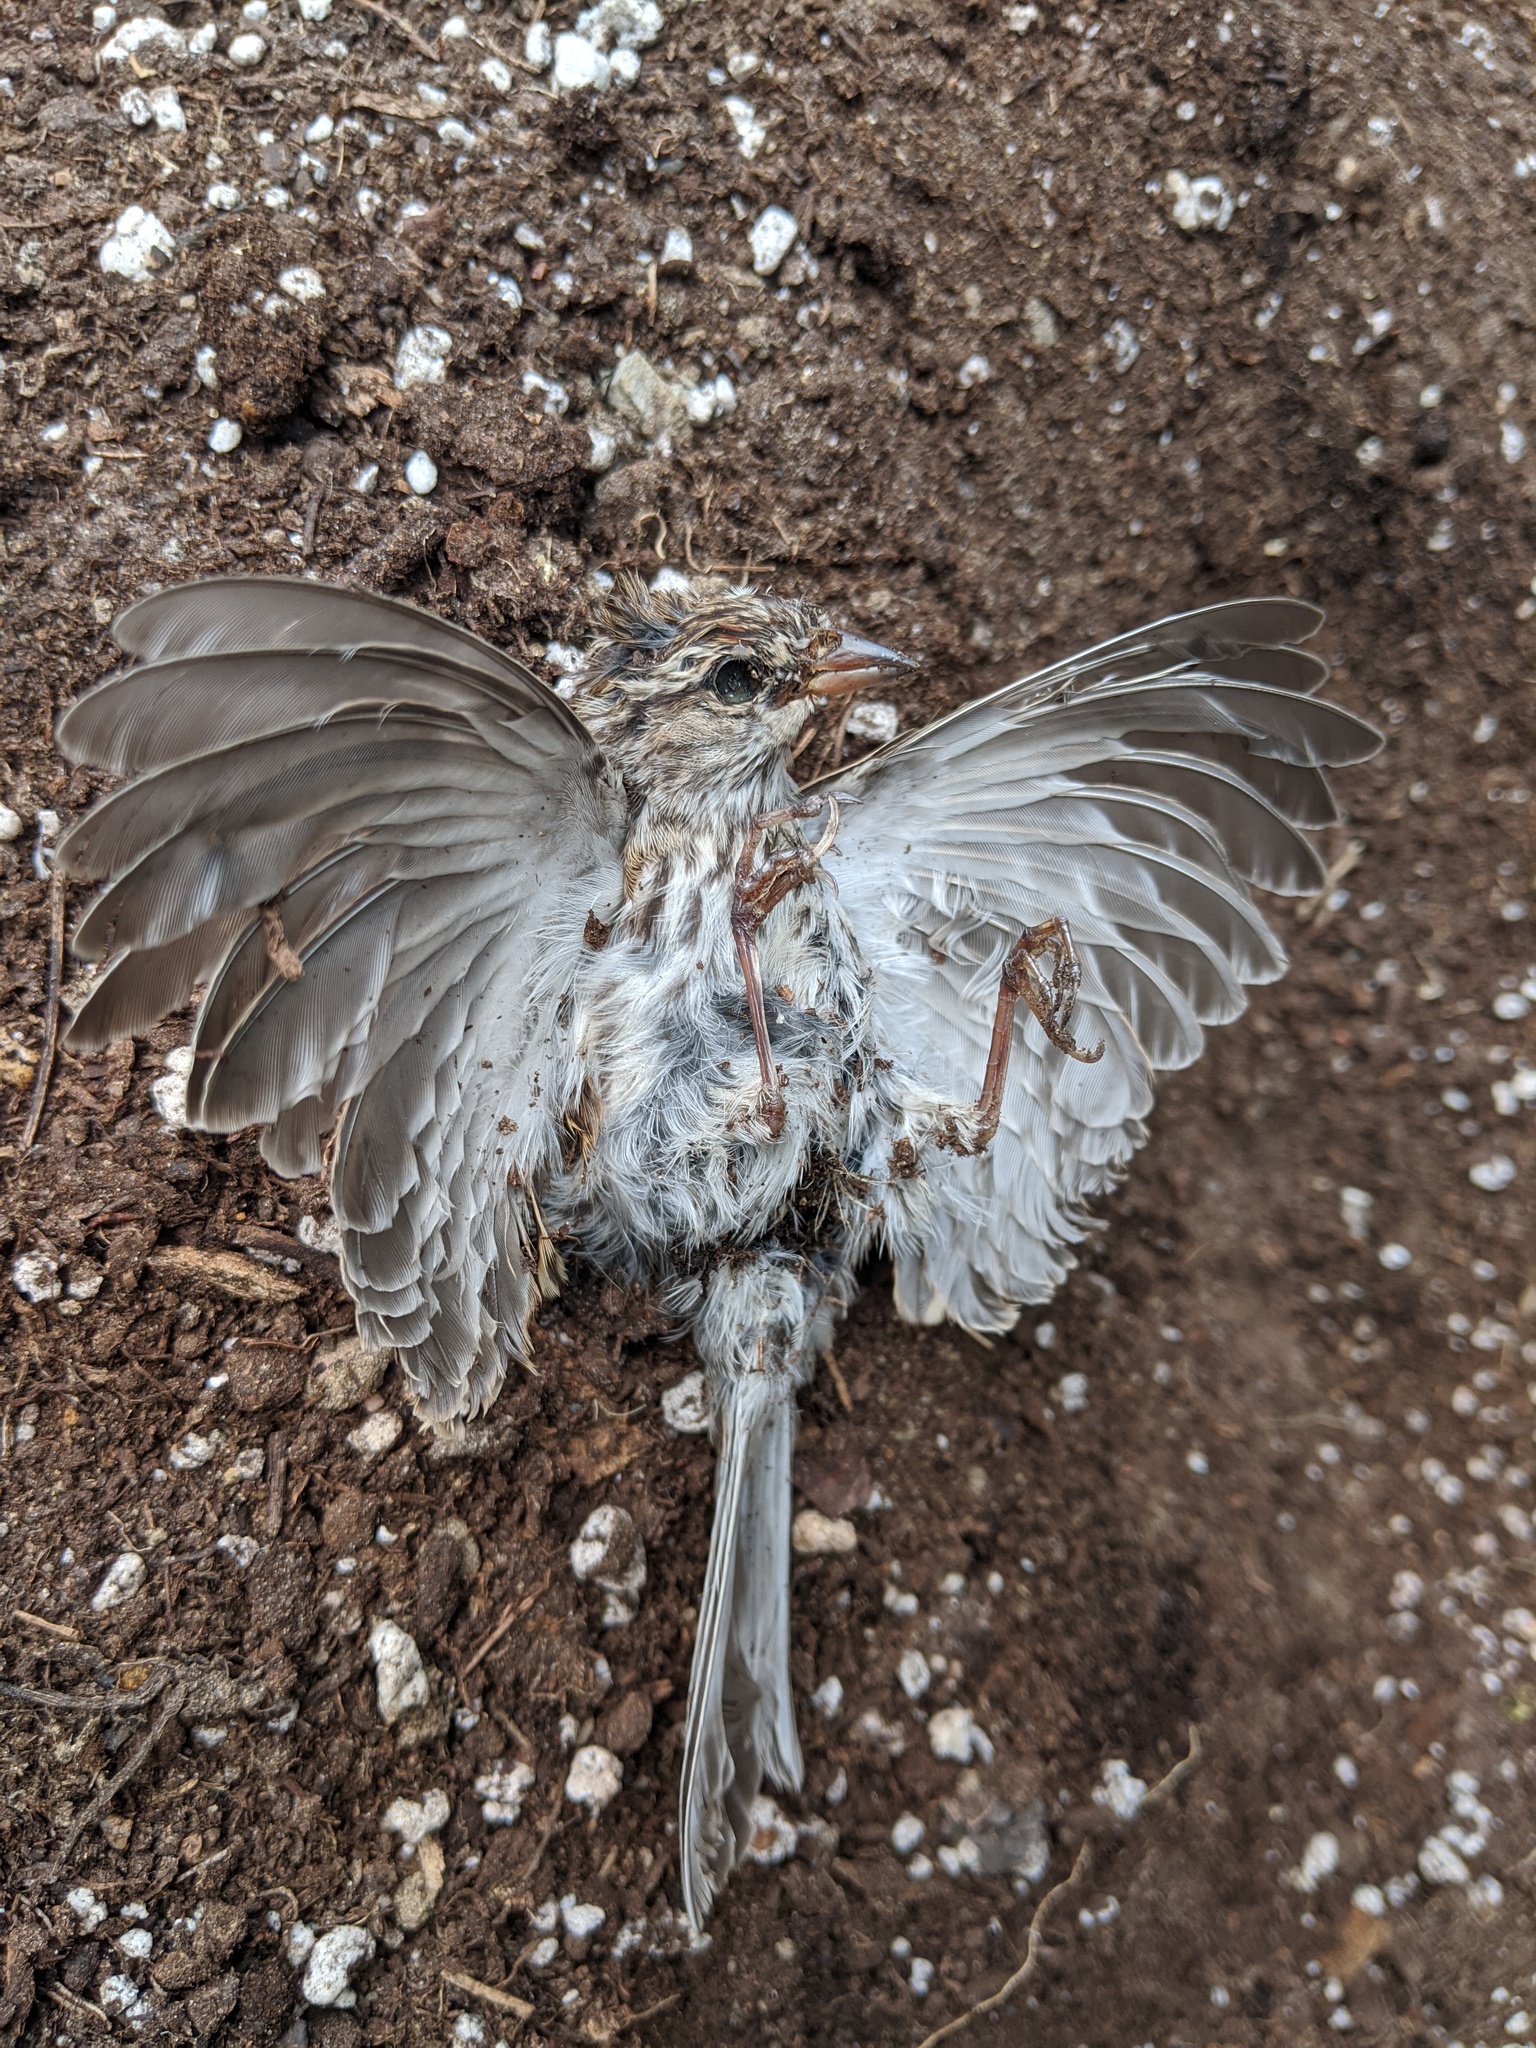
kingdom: Animalia
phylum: Chordata
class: Aves
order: Passeriformes
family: Passerellidae
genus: Spizella
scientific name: Spizella passerina
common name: Chipping sparrow
